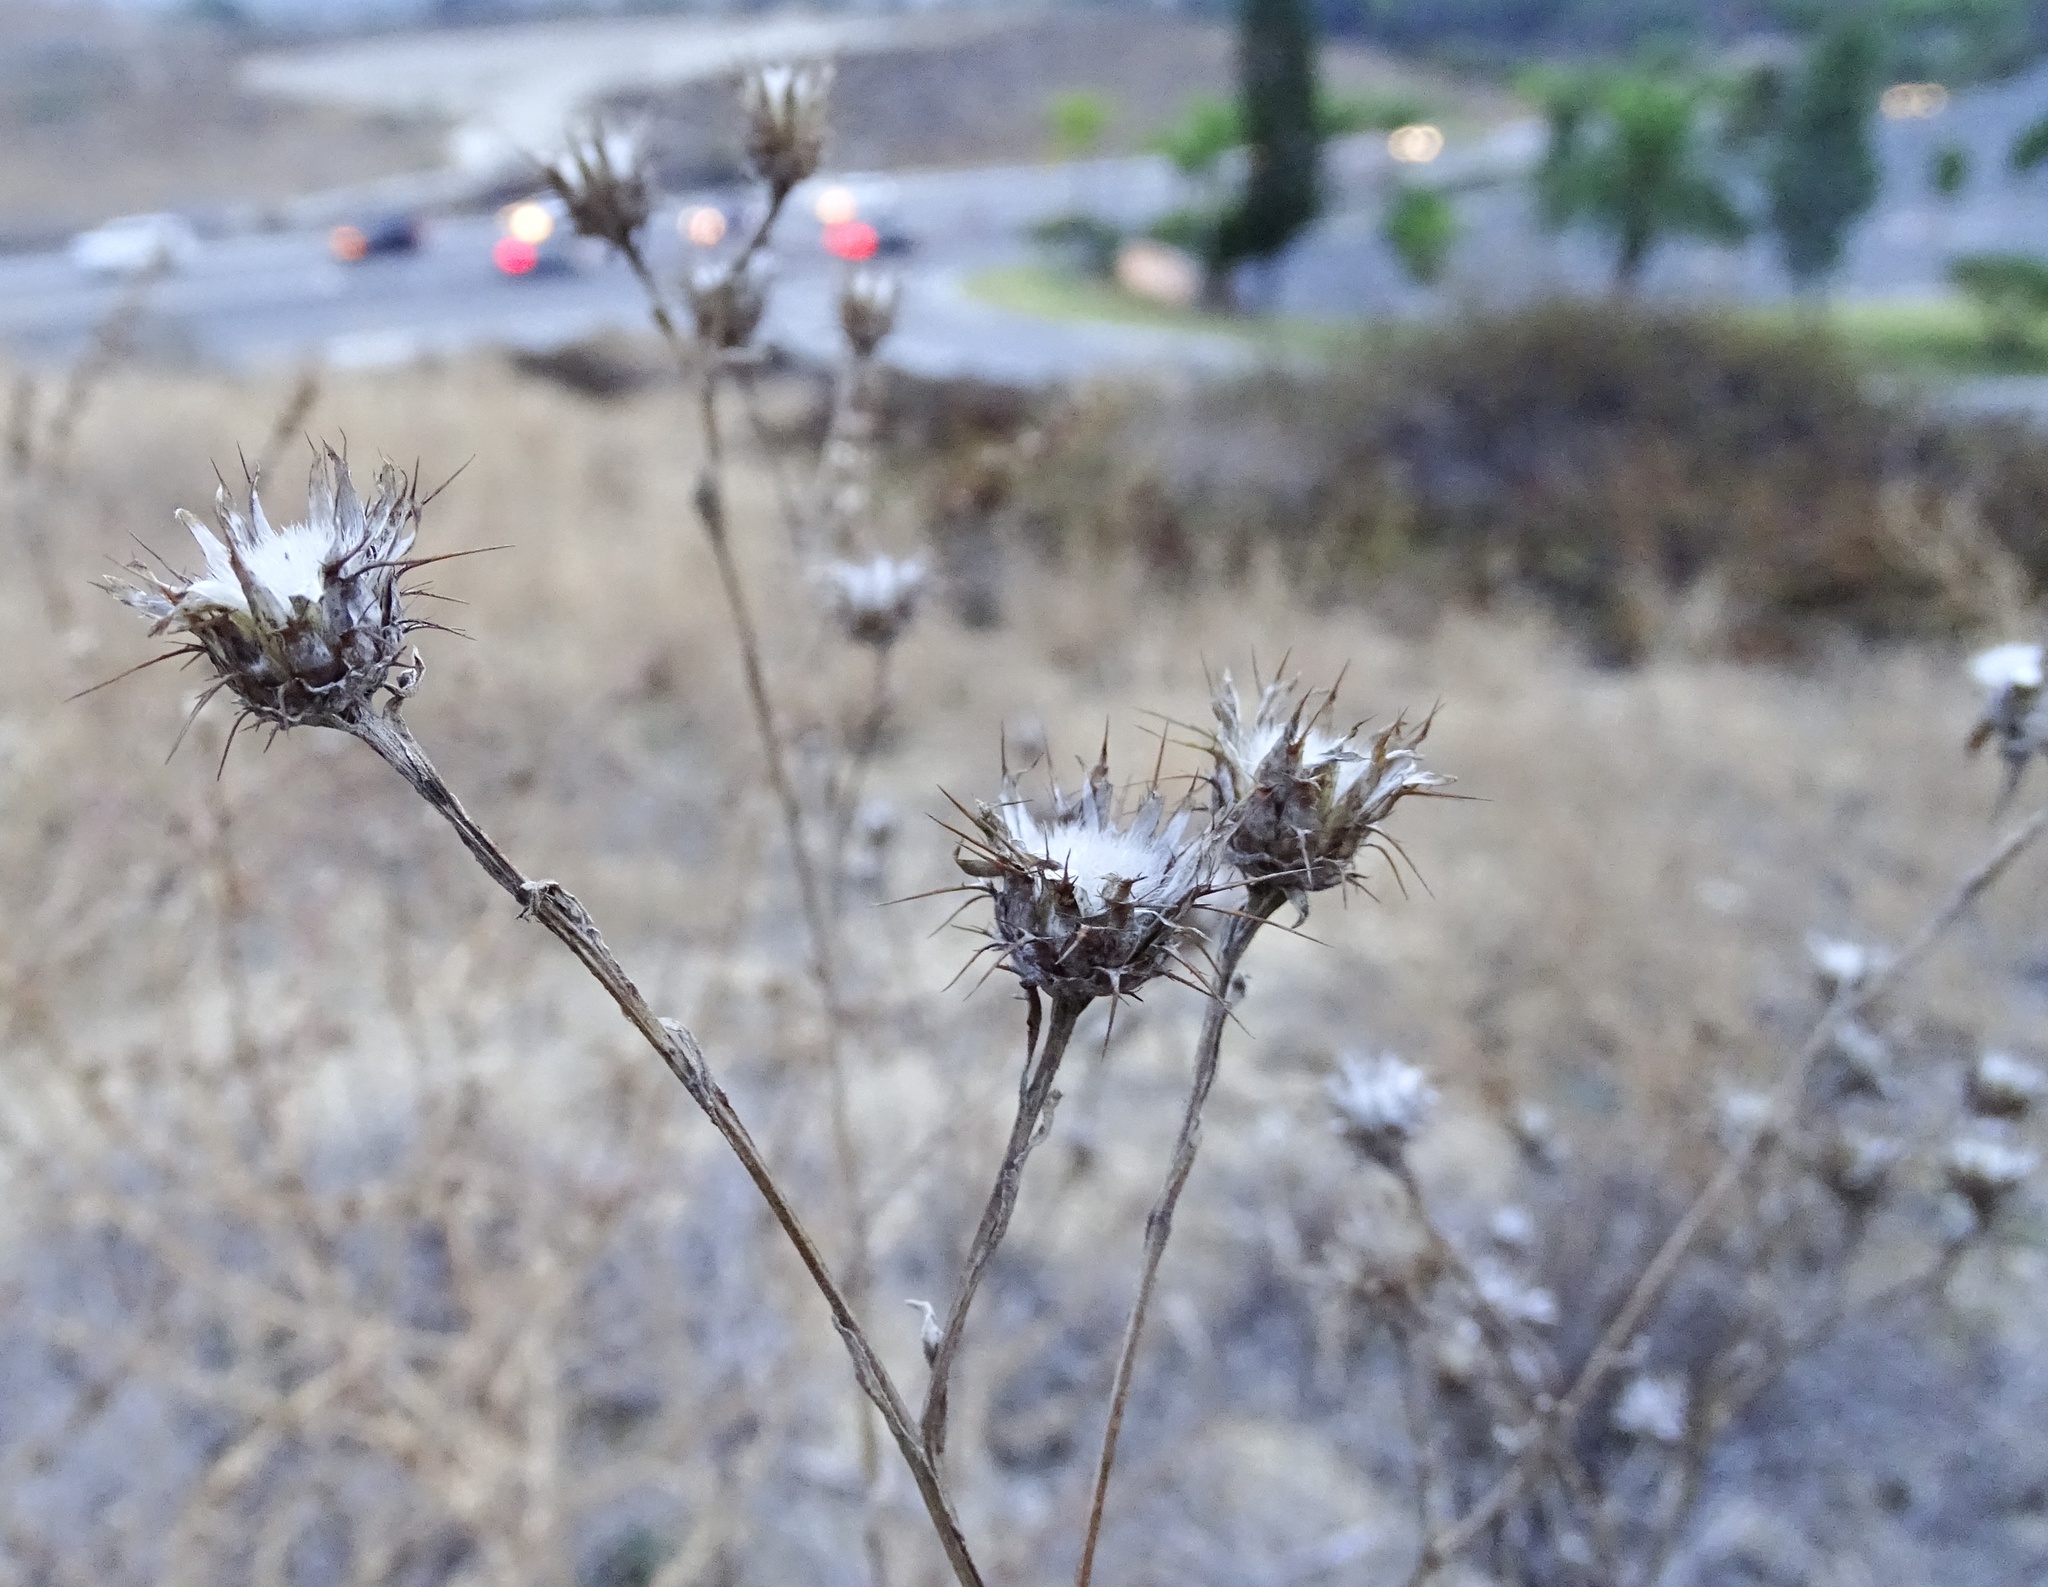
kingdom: Plantae
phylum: Tracheophyta
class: Magnoliopsida
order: Asterales
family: Asteraceae
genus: Centaurea
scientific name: Centaurea melitensis
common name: Maltese star-thistle
